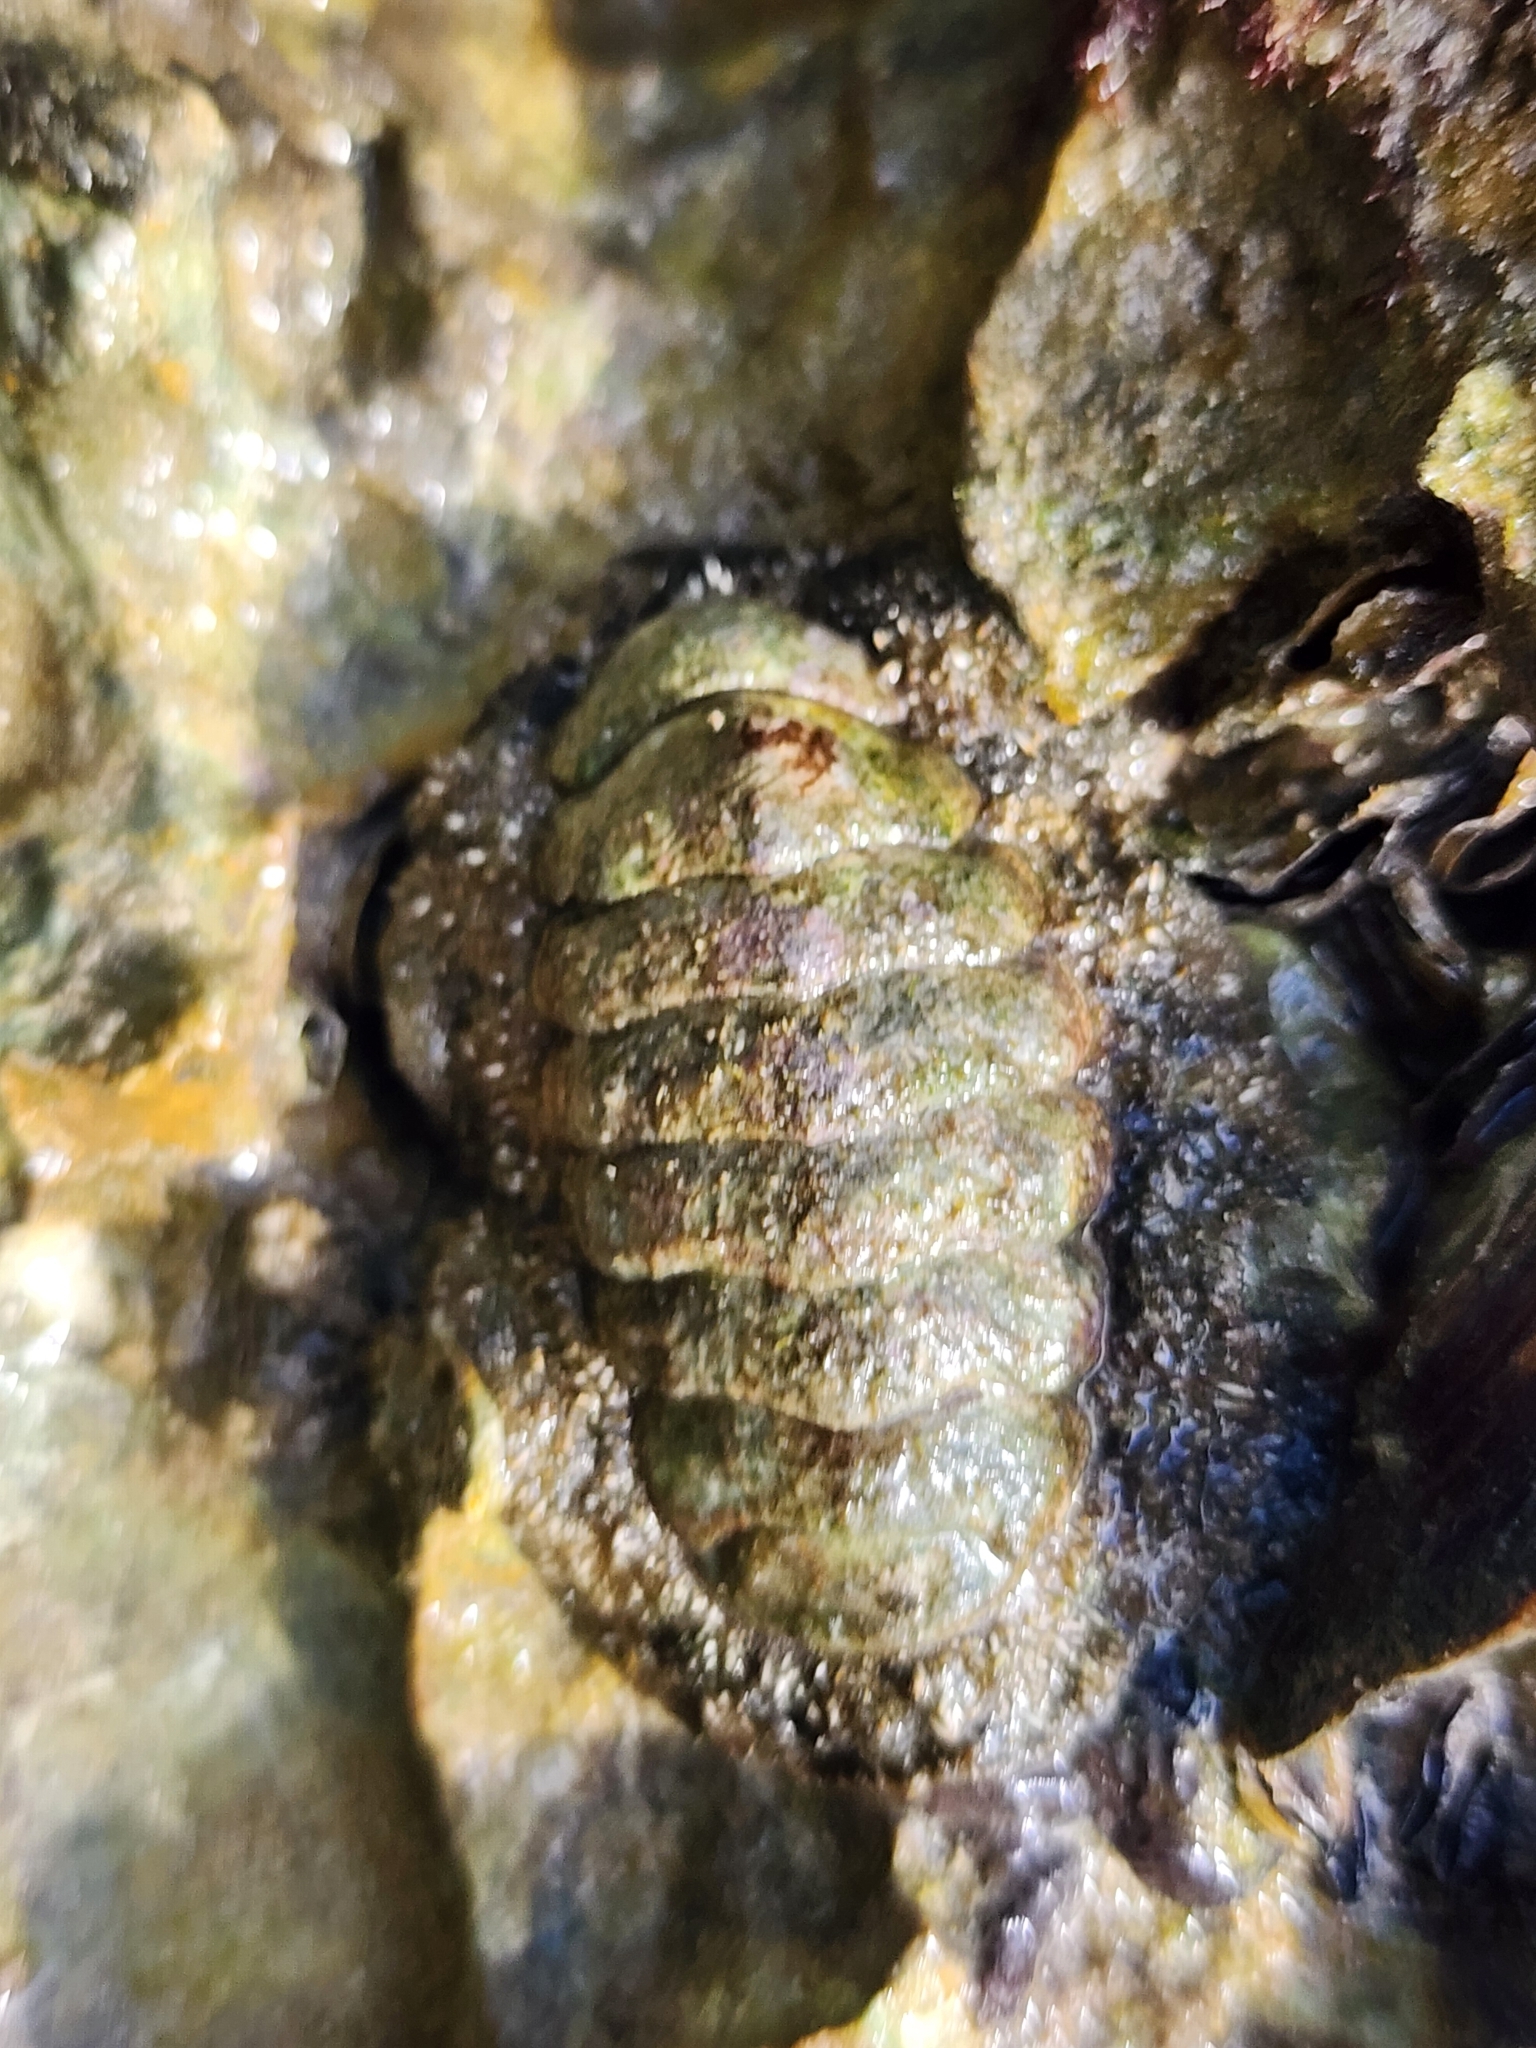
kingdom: Animalia
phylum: Mollusca
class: Polyplacophora
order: Chitonida
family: Chitonidae
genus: Acanthopleura
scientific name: Acanthopleura granulata
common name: West indian fuzzy chiton
